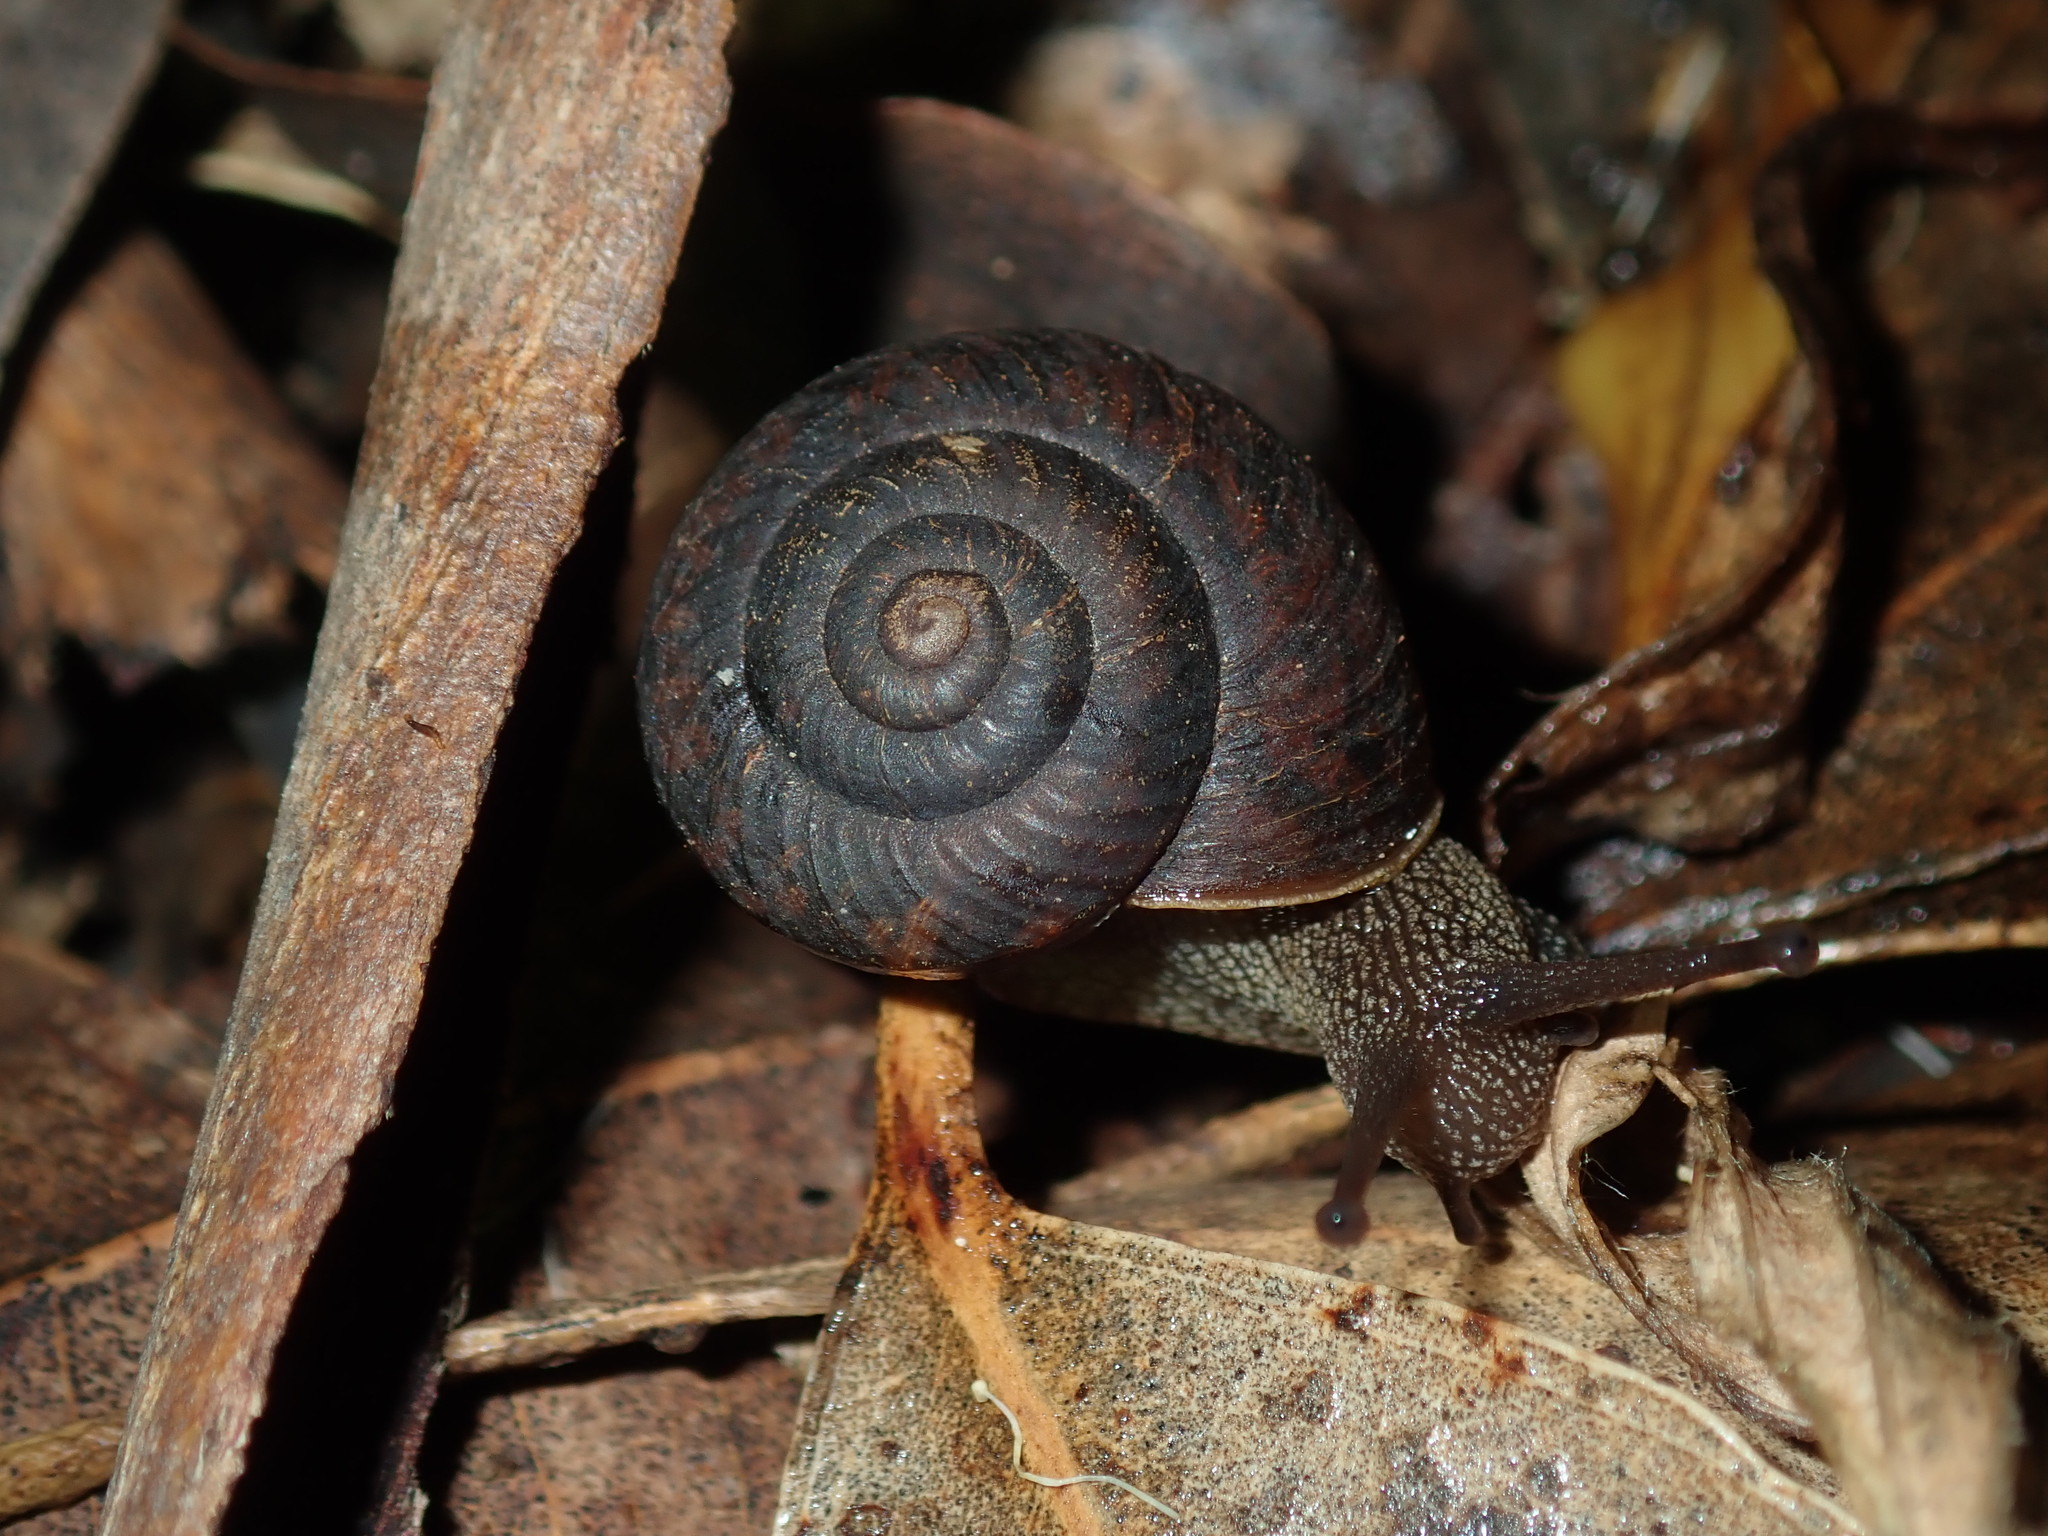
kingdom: Animalia
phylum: Mollusca
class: Gastropoda
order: Stylommatophora
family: Camaenidae
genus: Sauroconcha
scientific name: Sauroconcha sheai
